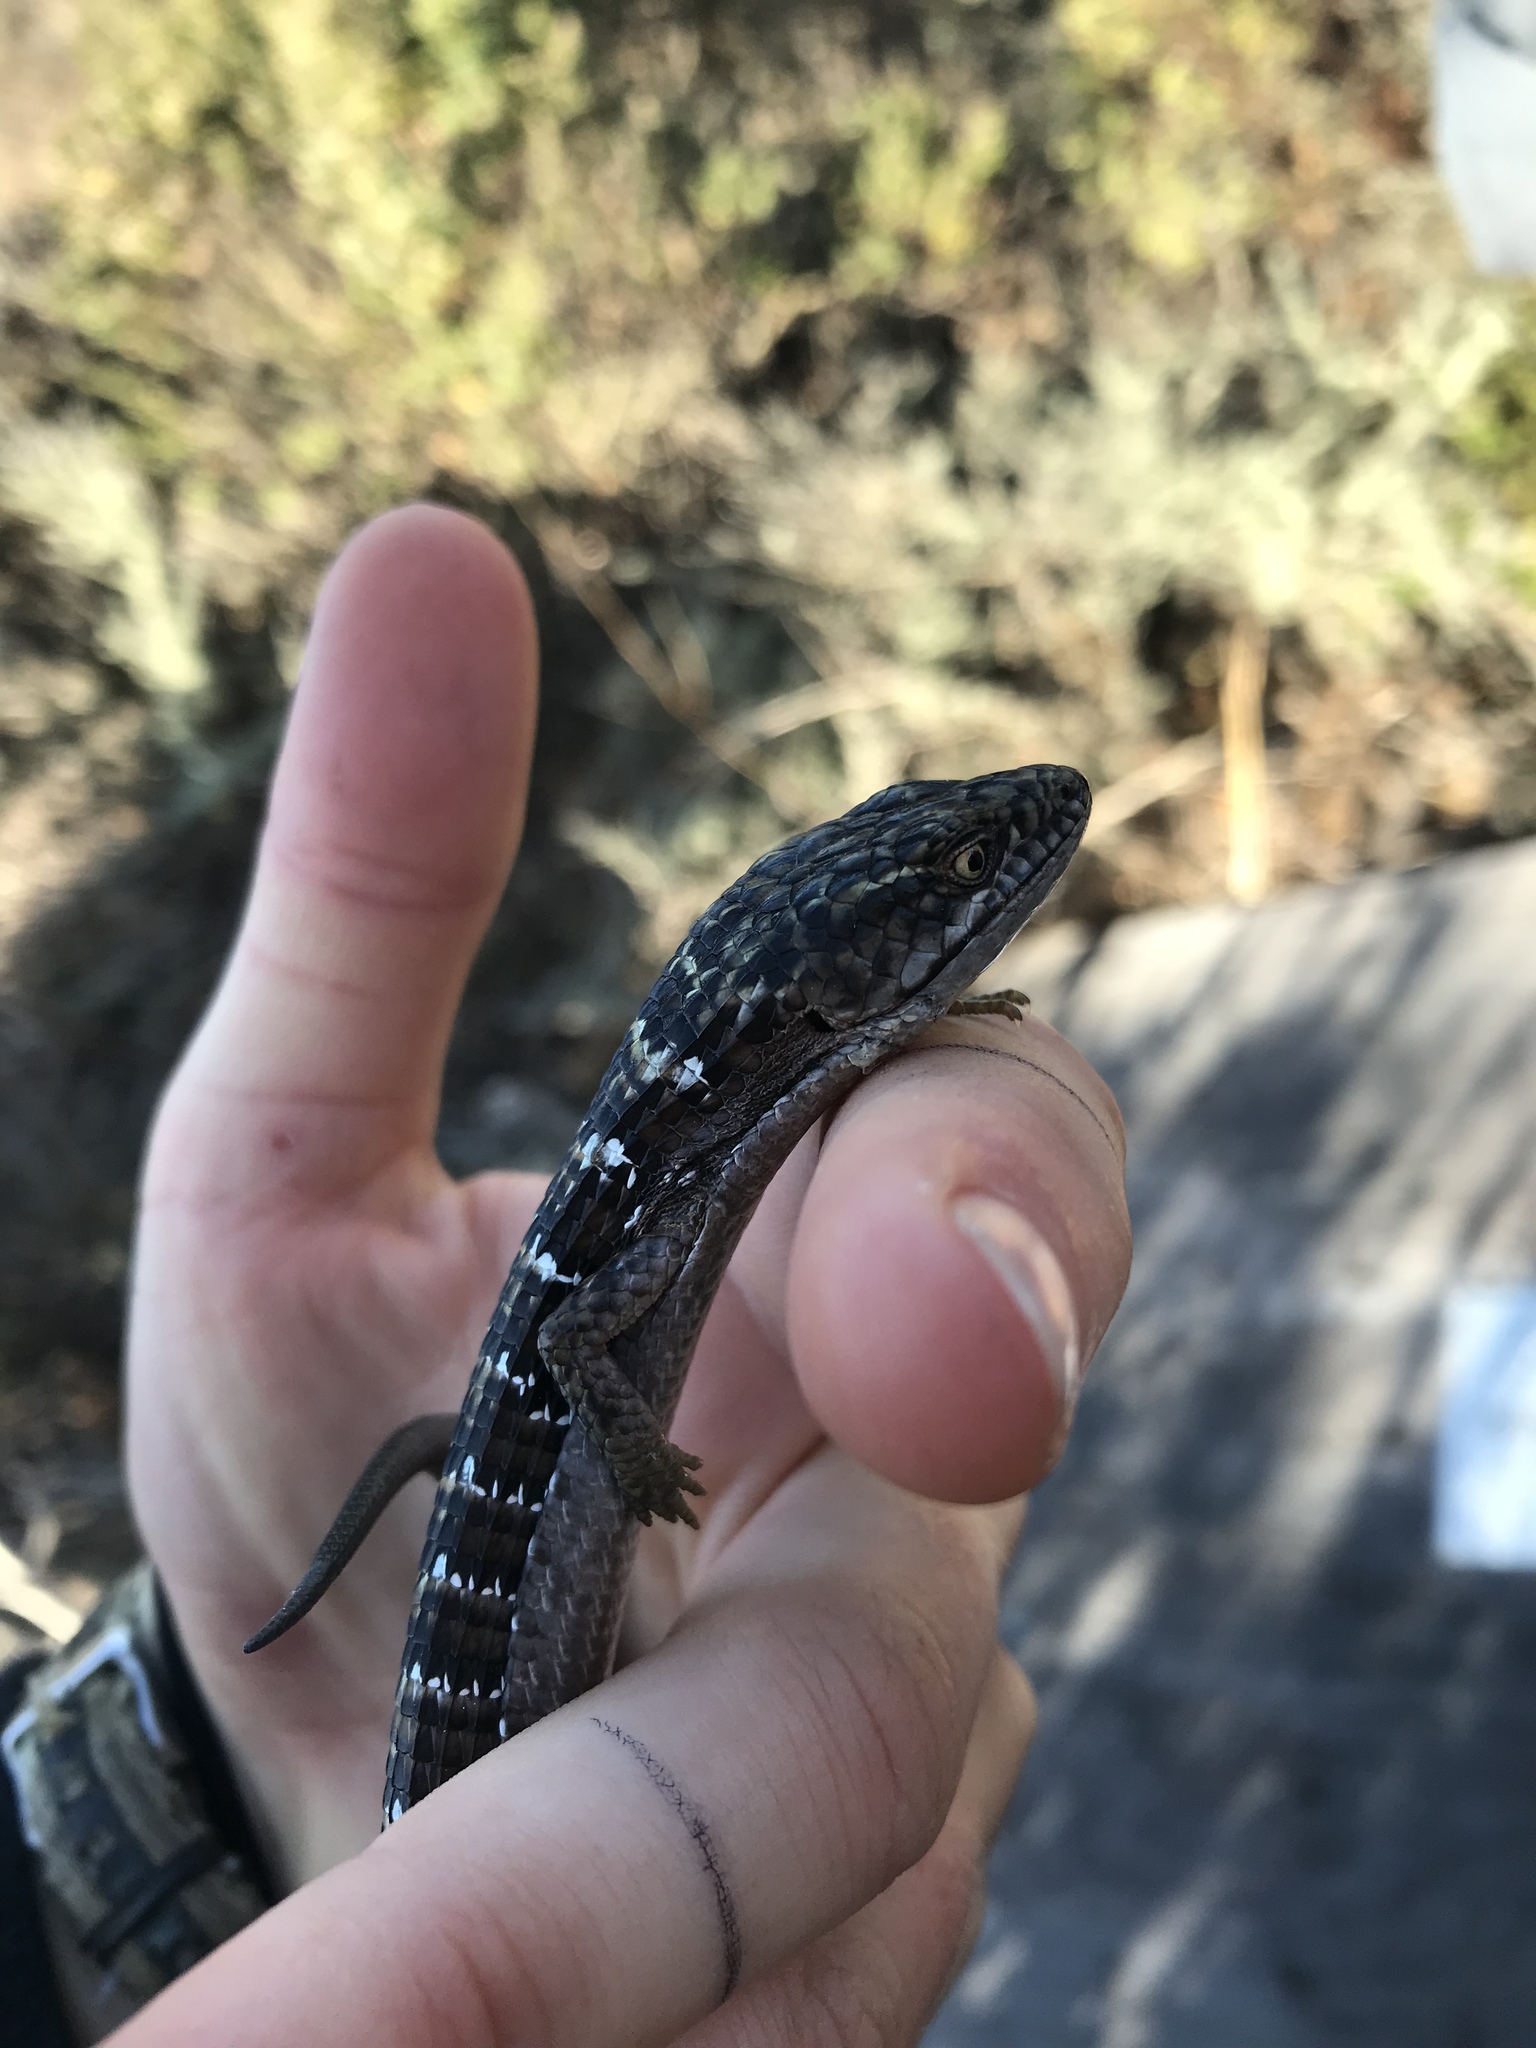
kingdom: Animalia
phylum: Chordata
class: Squamata
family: Anguidae
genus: Elgaria
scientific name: Elgaria multicarinata
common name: Southern alligator lizard
